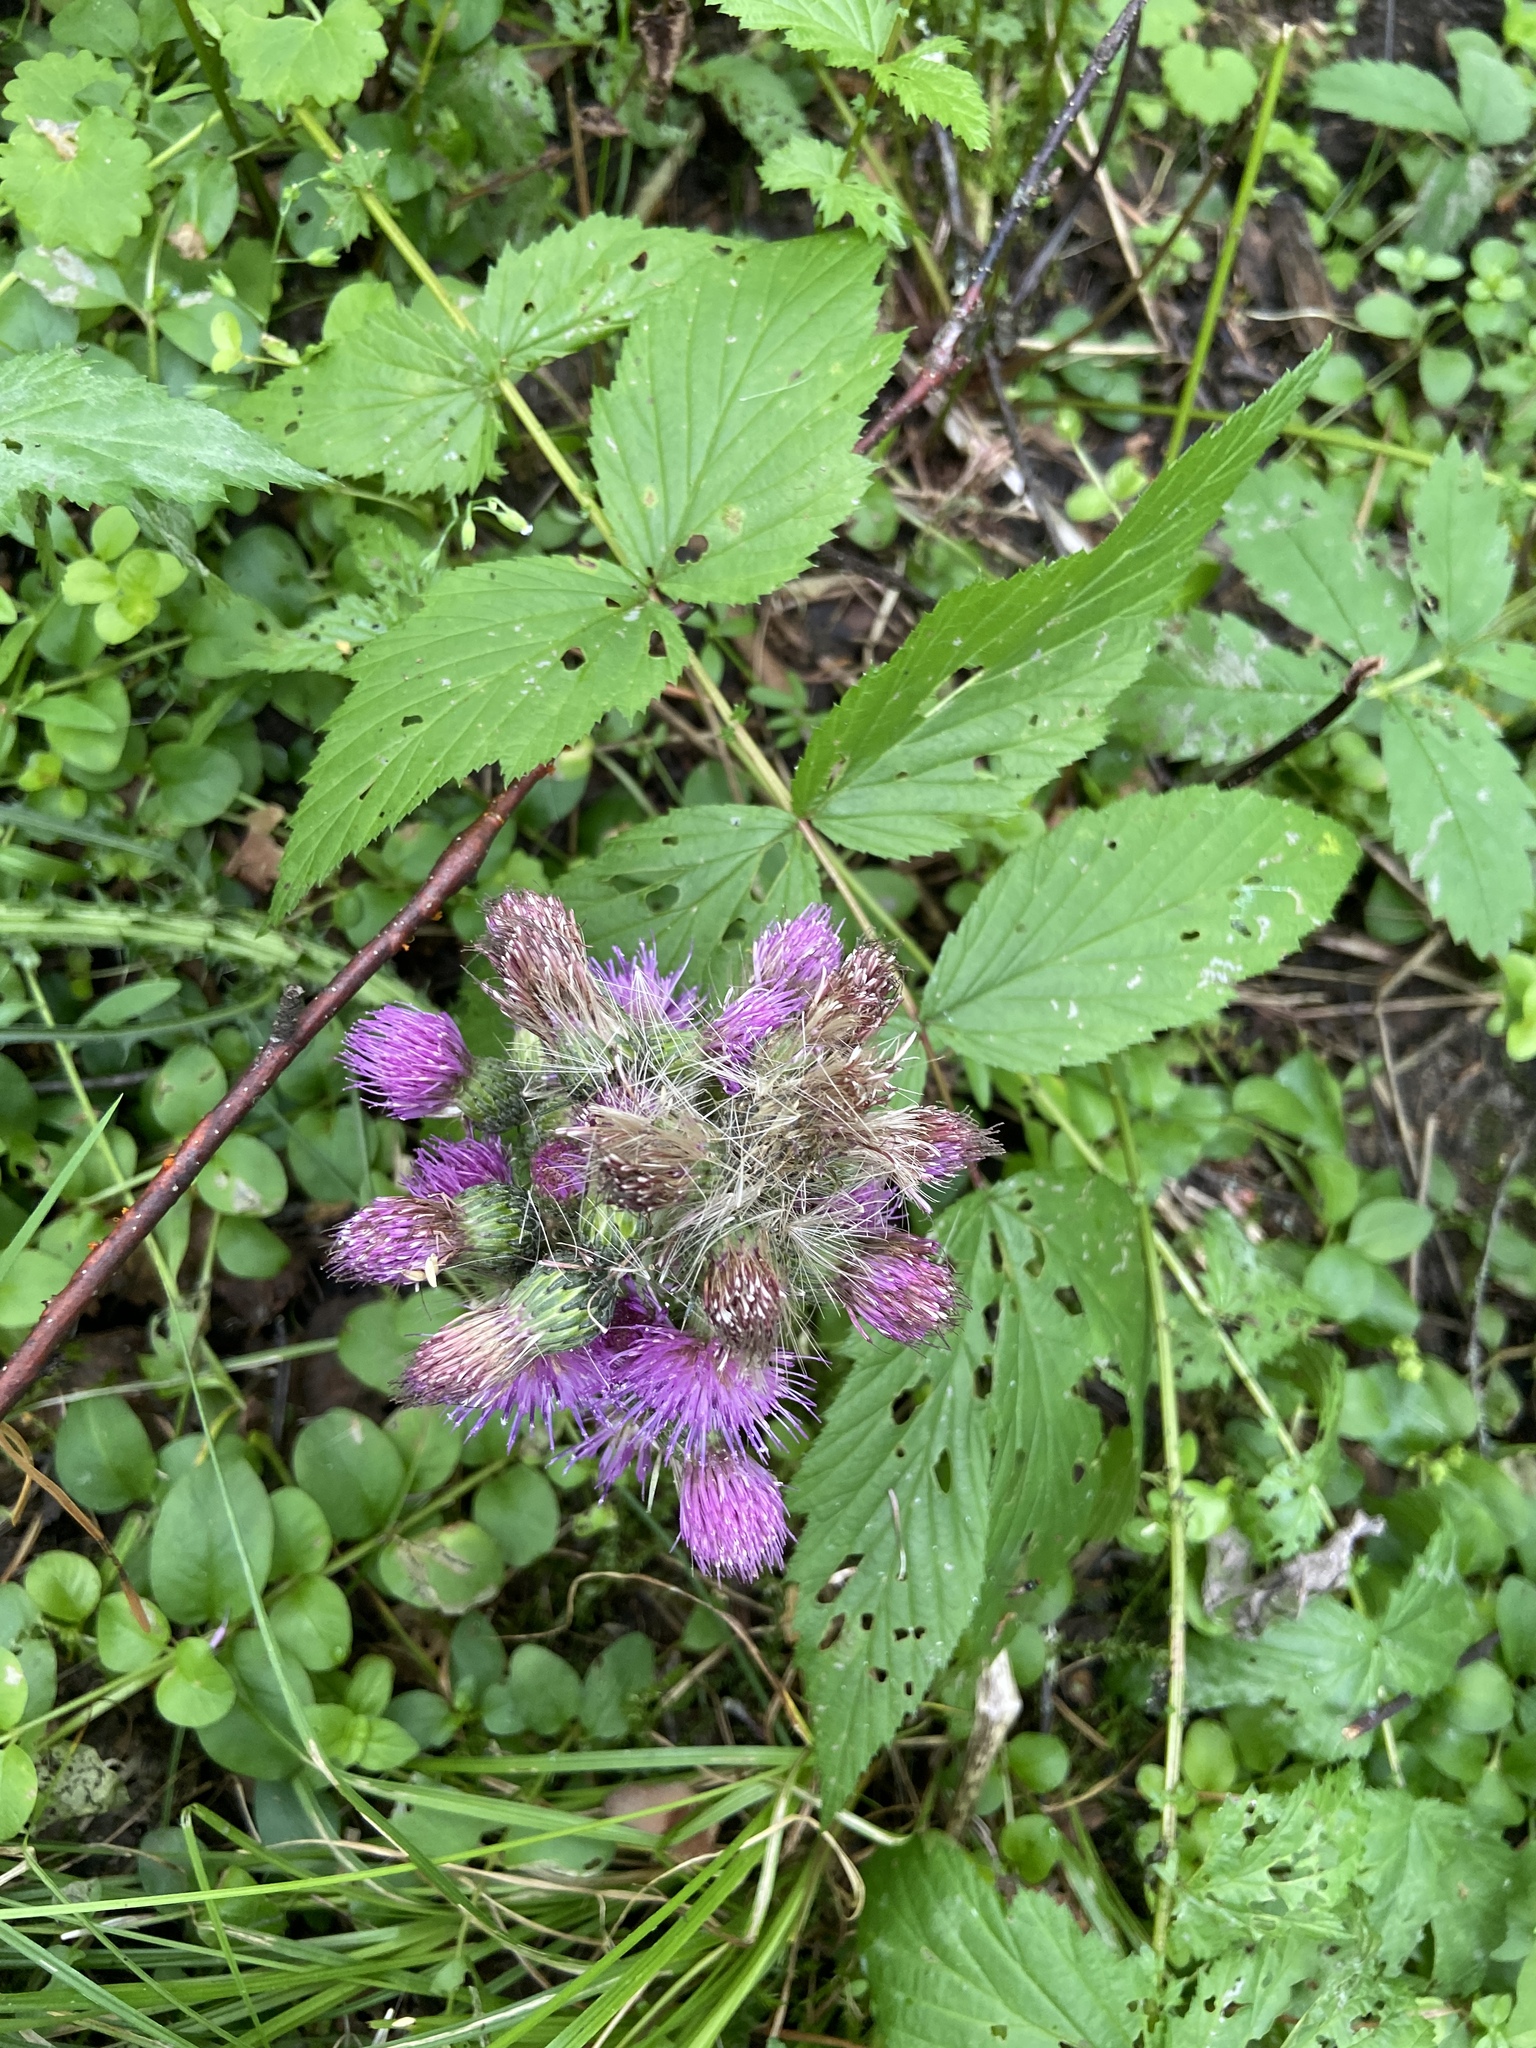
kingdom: Plantae
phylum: Tracheophyta
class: Magnoliopsida
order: Asterales
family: Asteraceae
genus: Cirsium
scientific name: Cirsium palustre
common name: Marsh thistle
